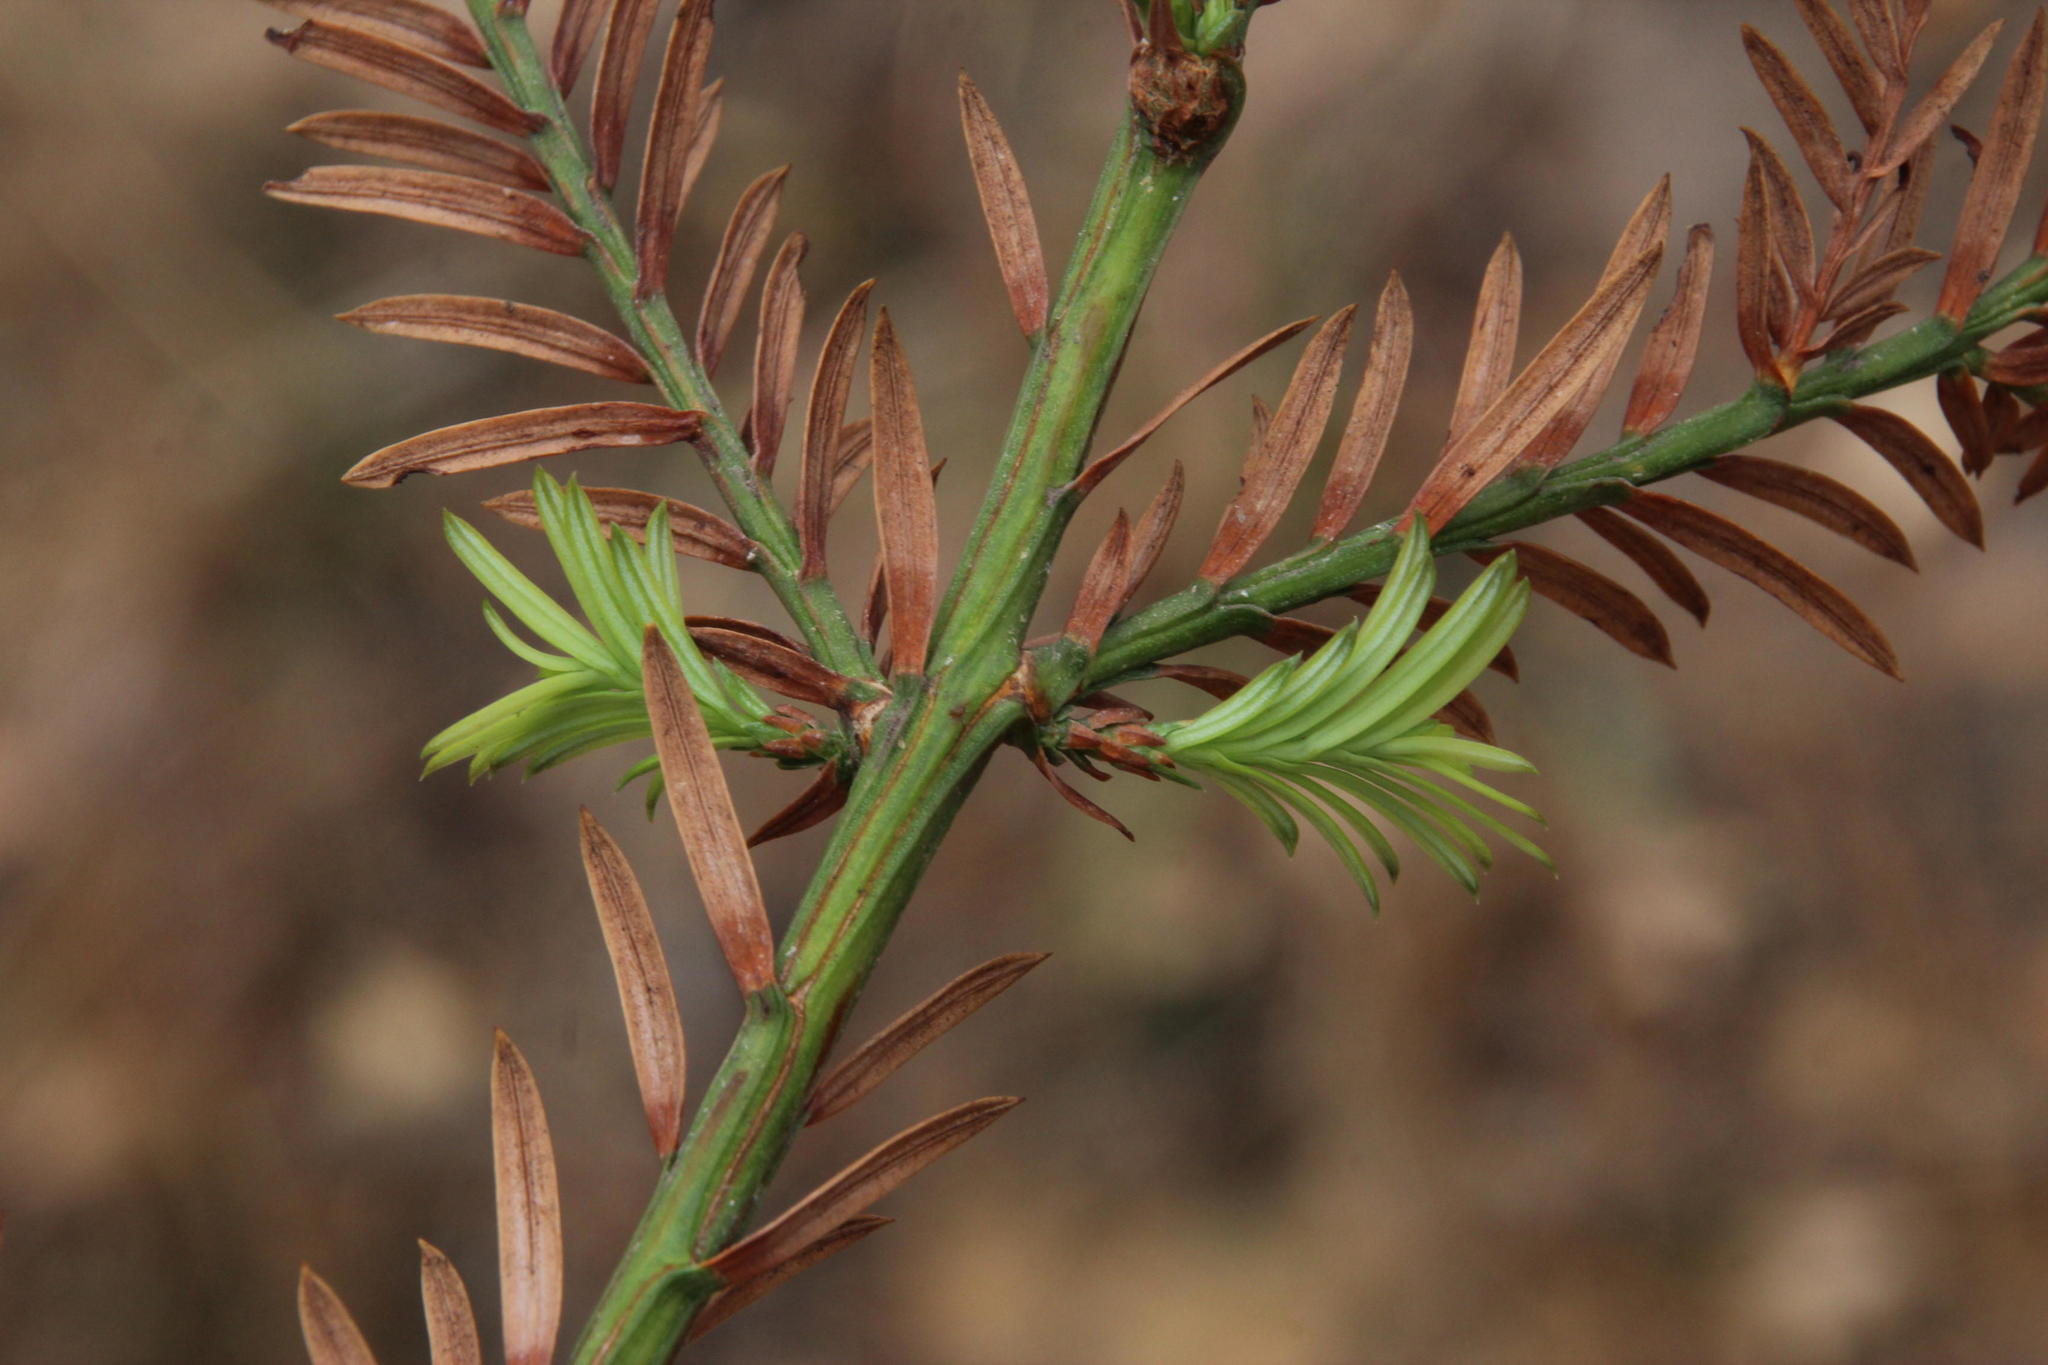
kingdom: Plantae
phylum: Tracheophyta
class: Pinopsida
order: Pinales
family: Cupressaceae
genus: Sequoia
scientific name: Sequoia sempervirens
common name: Coast redwood
